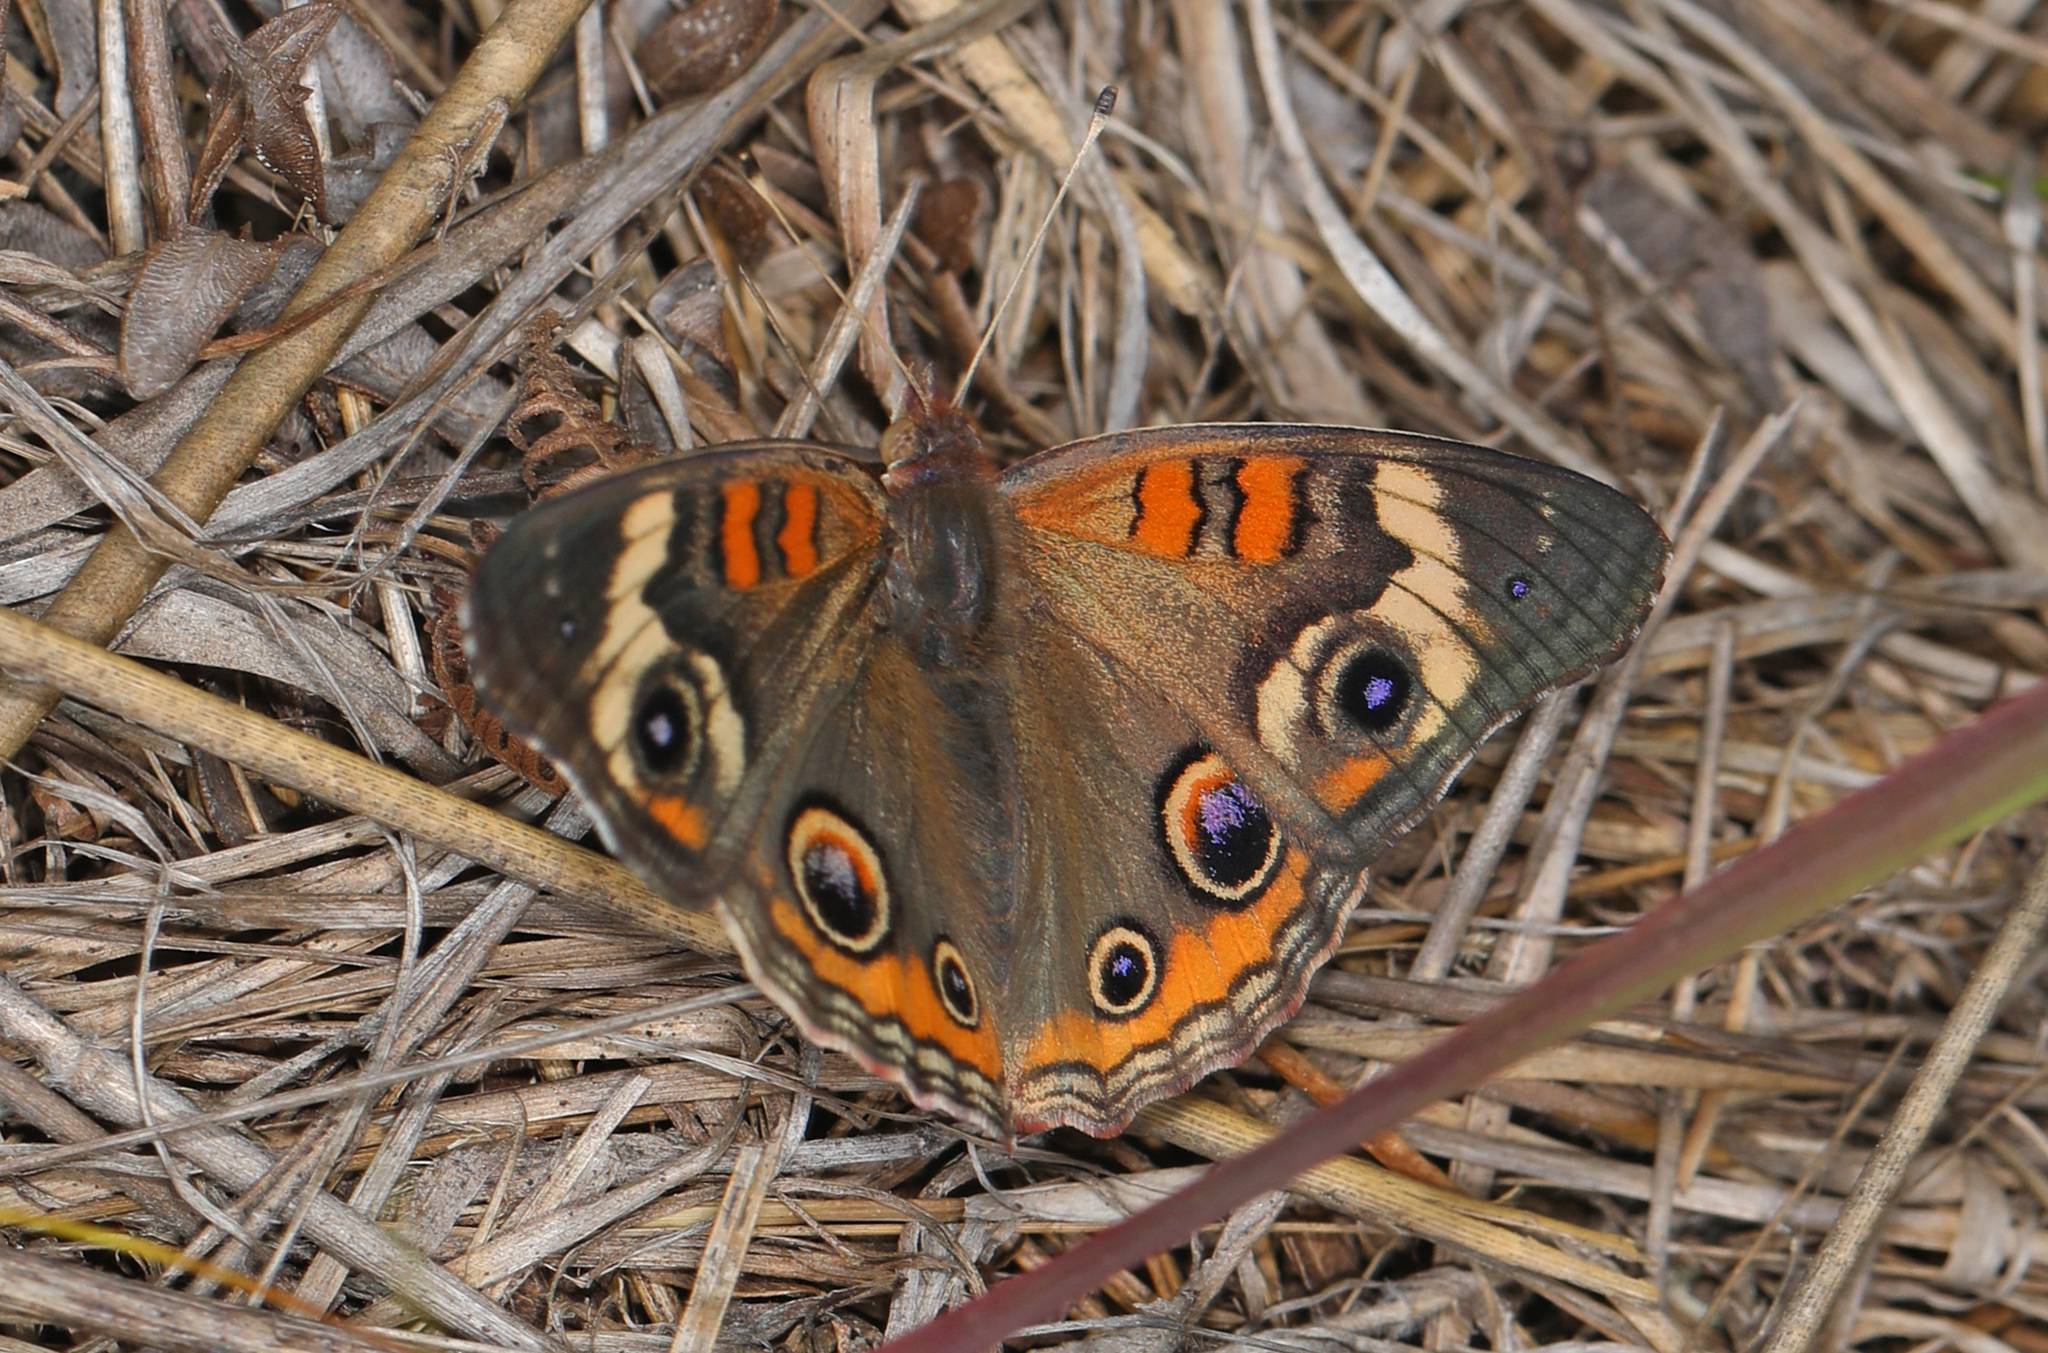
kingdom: Animalia
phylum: Arthropoda
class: Insecta
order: Lepidoptera
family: Nymphalidae
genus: Junonia
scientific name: Junonia coenia
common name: Common buckeye
